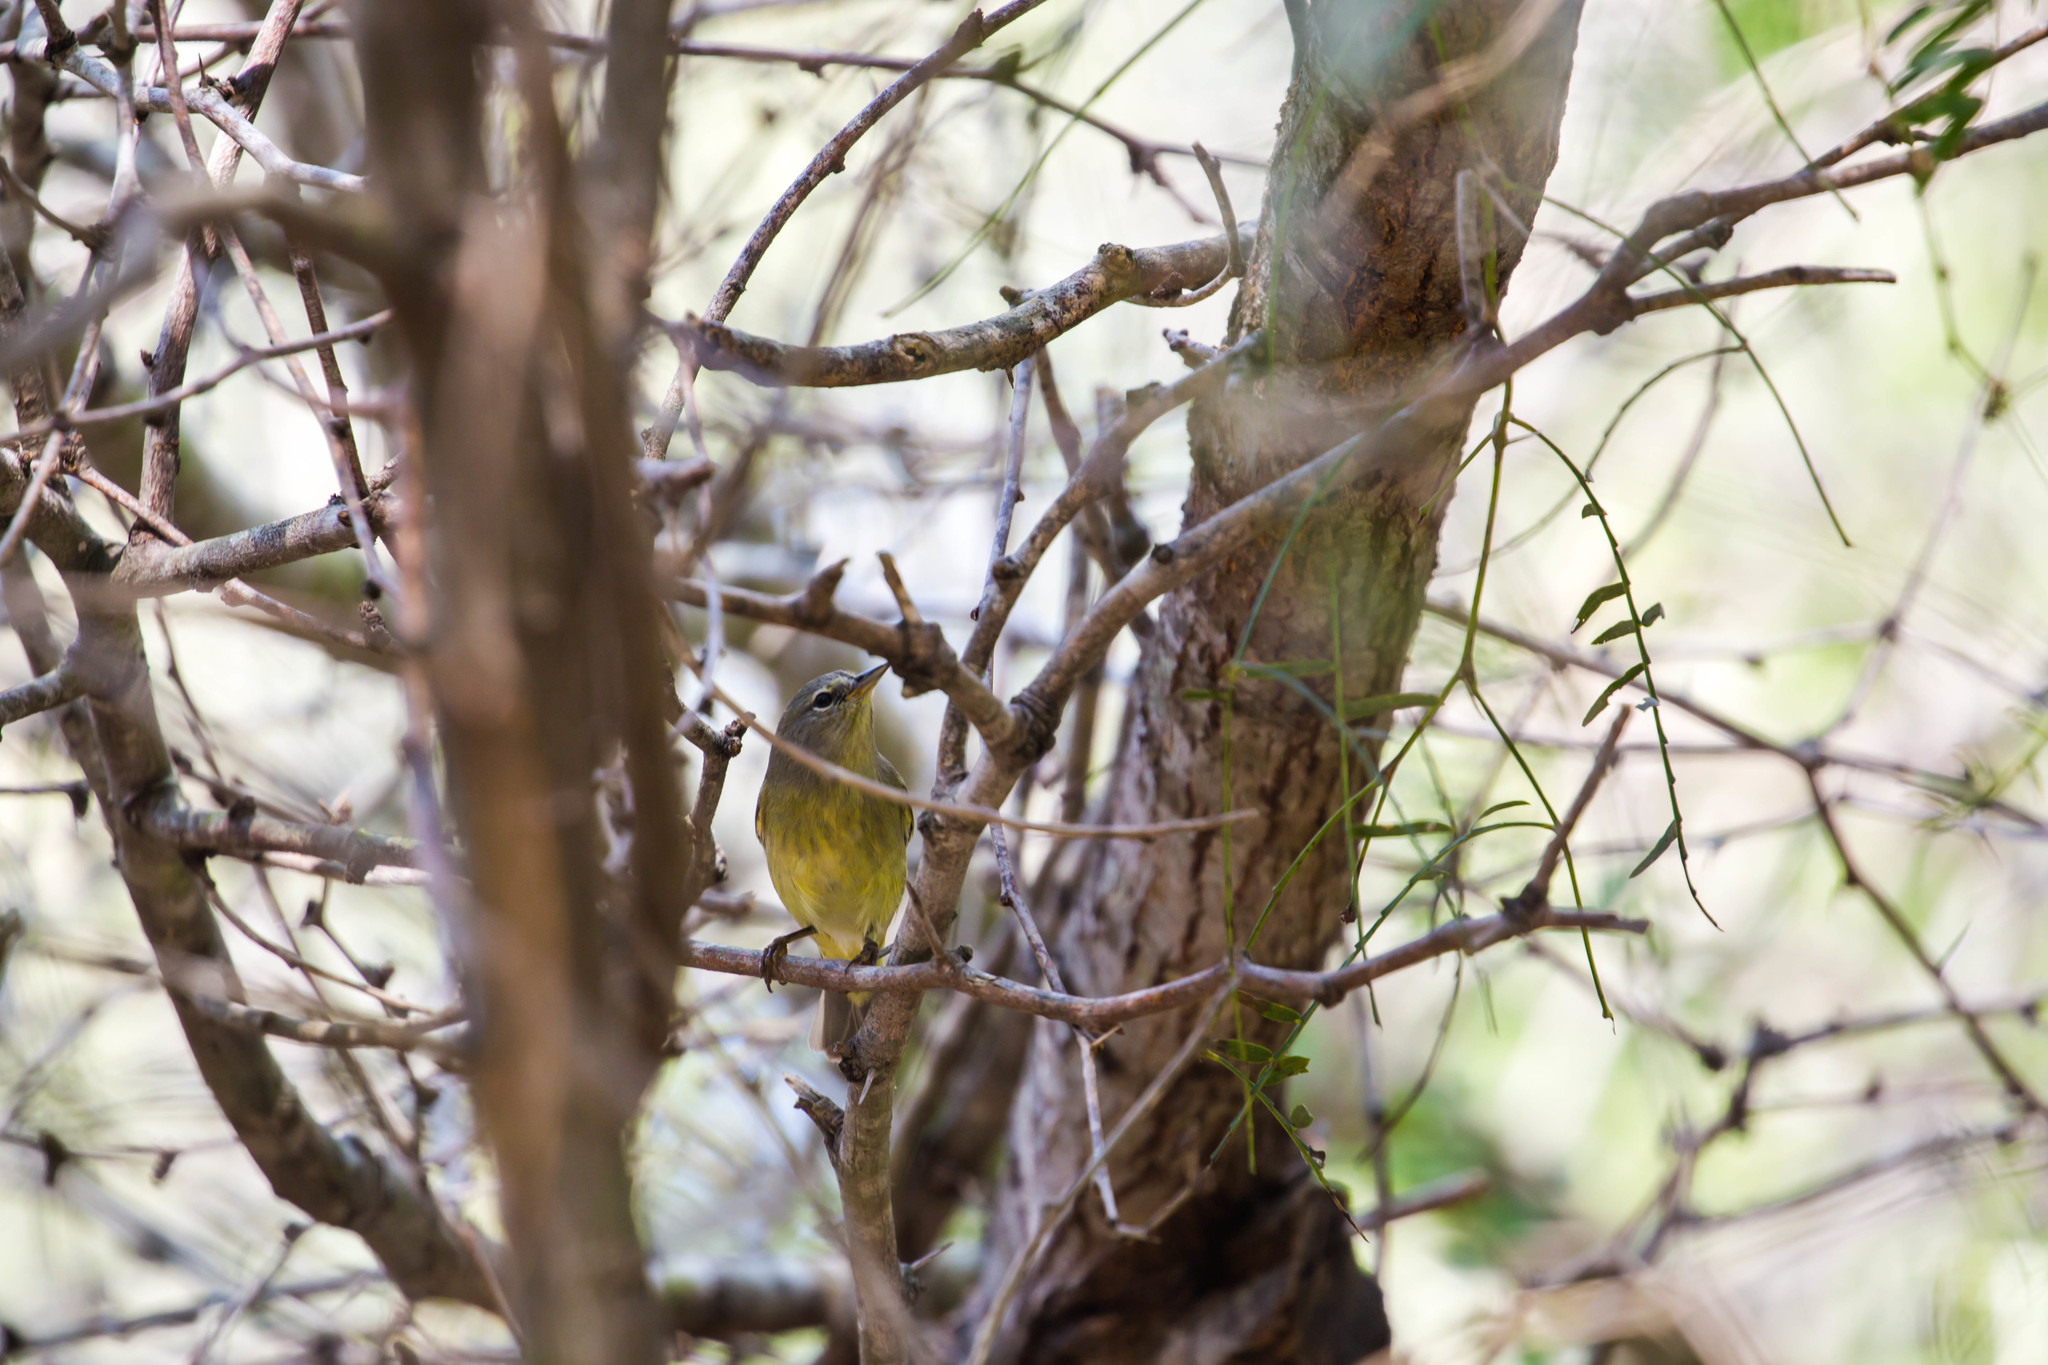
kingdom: Animalia
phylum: Chordata
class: Aves
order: Passeriformes
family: Parulidae
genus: Leiothlypis
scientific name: Leiothlypis celata
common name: Orange-crowned warbler
